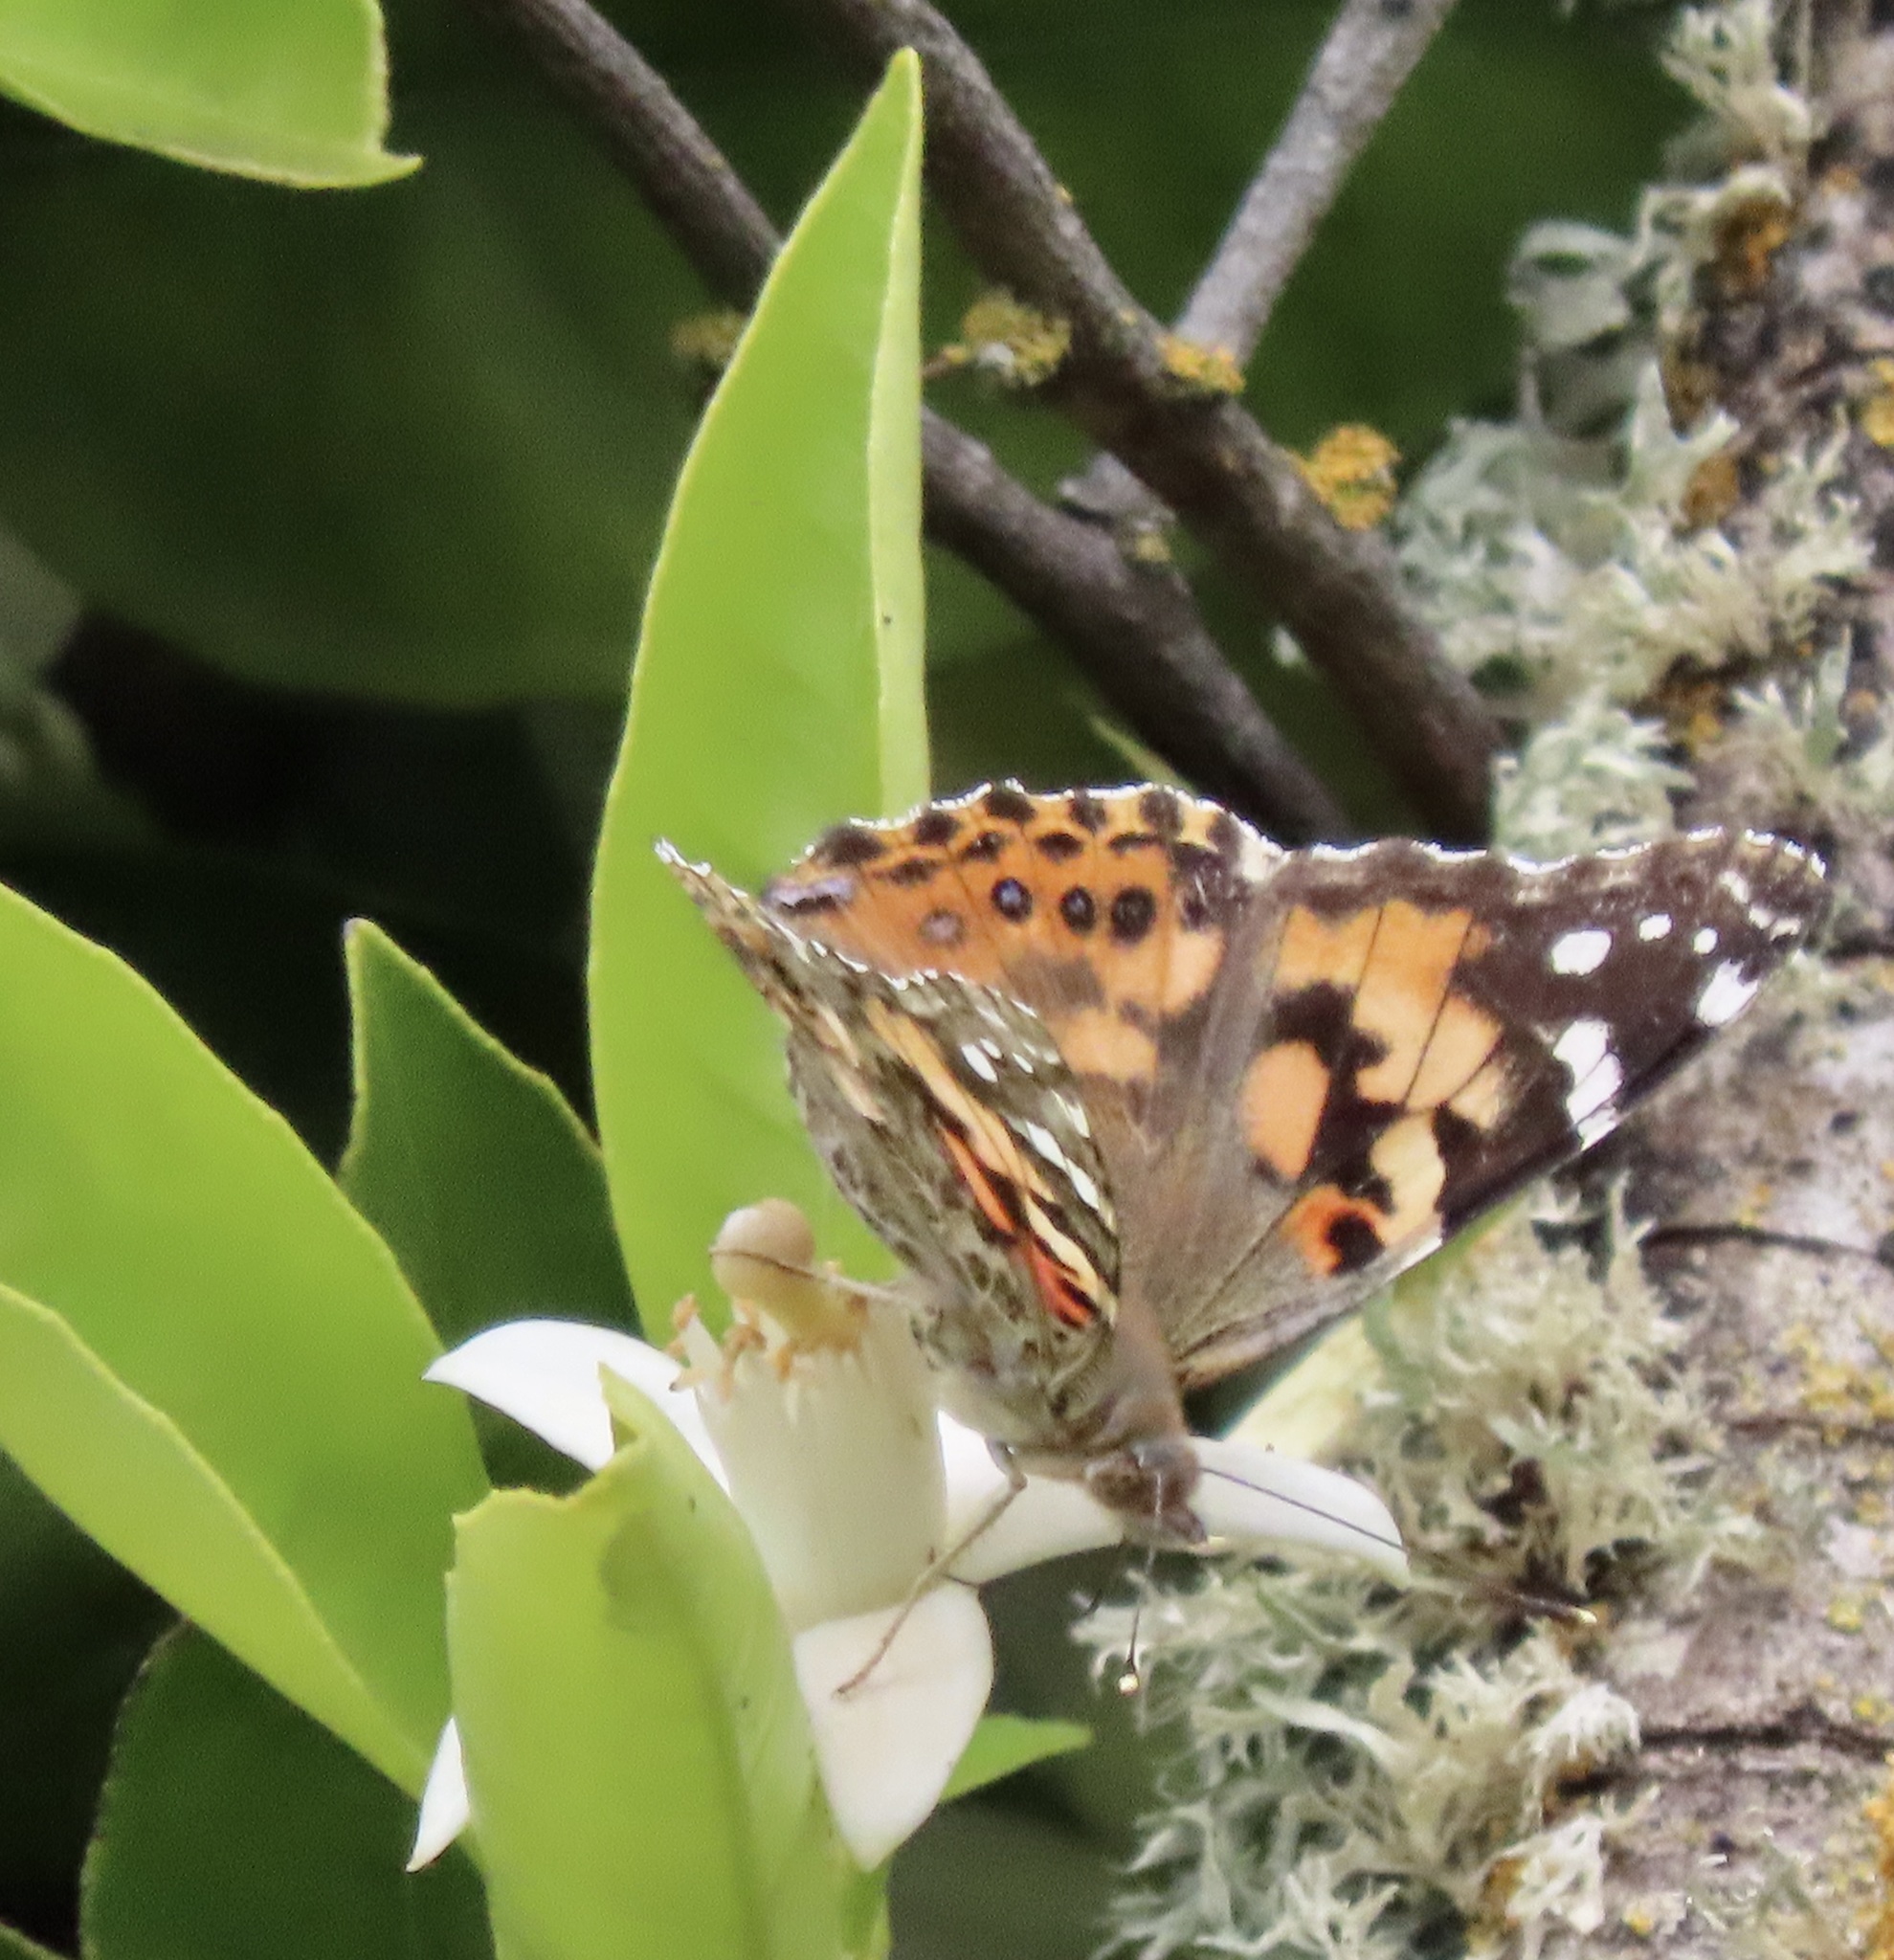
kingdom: Animalia
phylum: Arthropoda
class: Insecta
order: Lepidoptera
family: Nymphalidae
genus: Vanessa
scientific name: Vanessa cardui
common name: Painted lady
